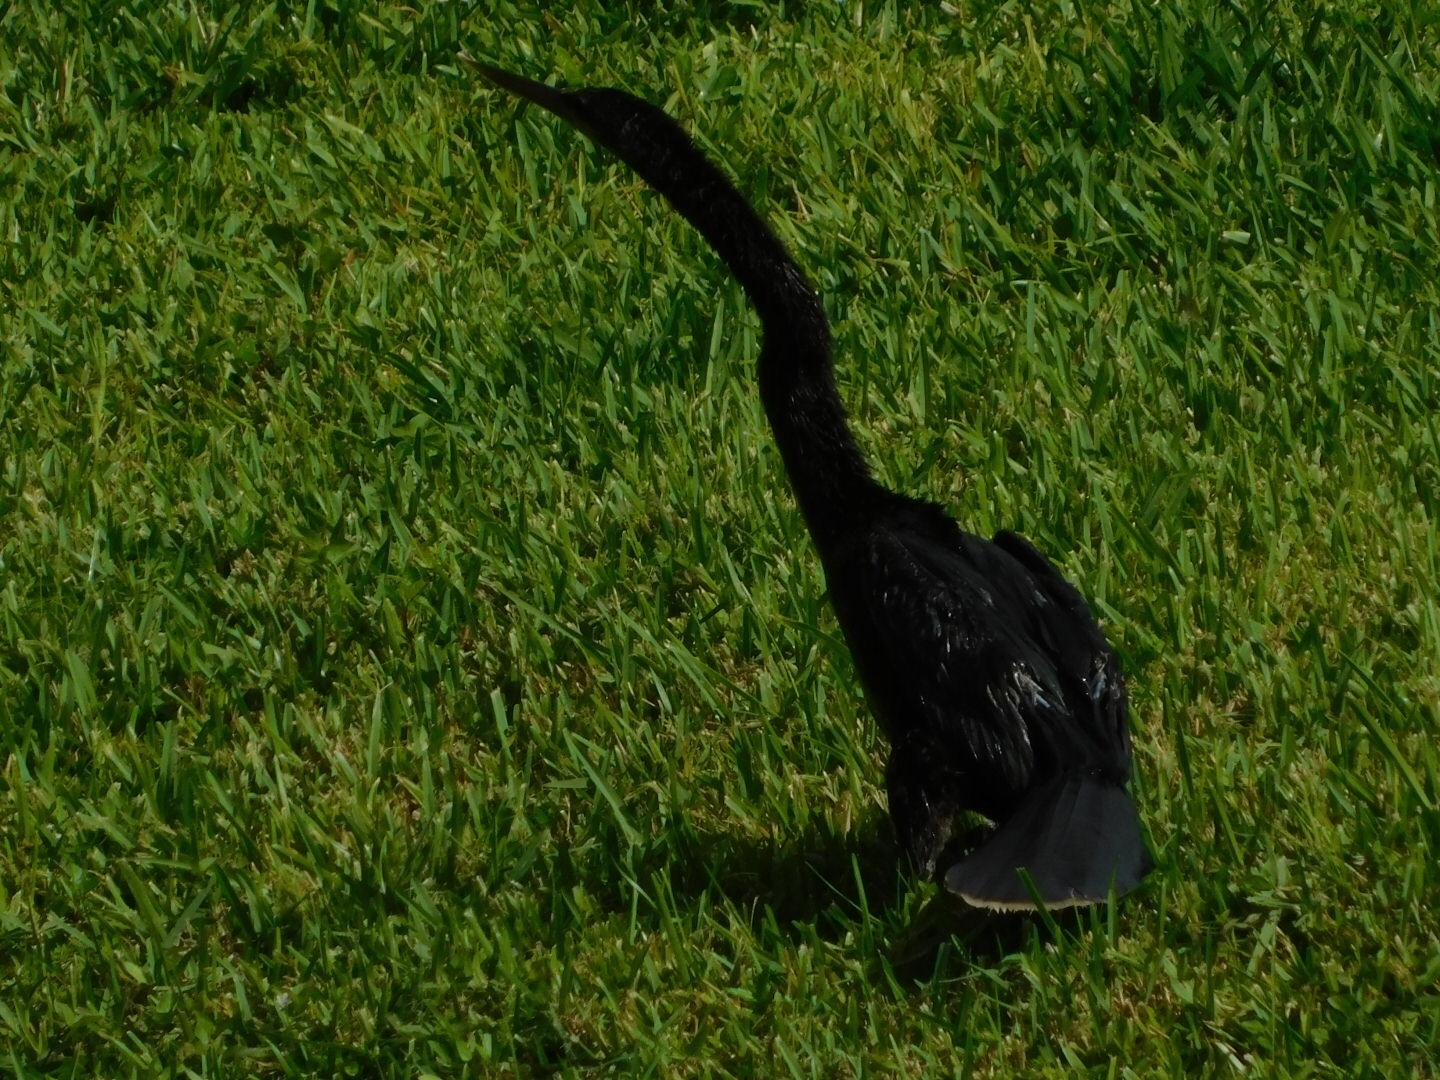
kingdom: Animalia
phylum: Chordata
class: Aves
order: Suliformes
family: Anhingidae
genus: Anhinga
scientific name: Anhinga anhinga
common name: Anhinga
